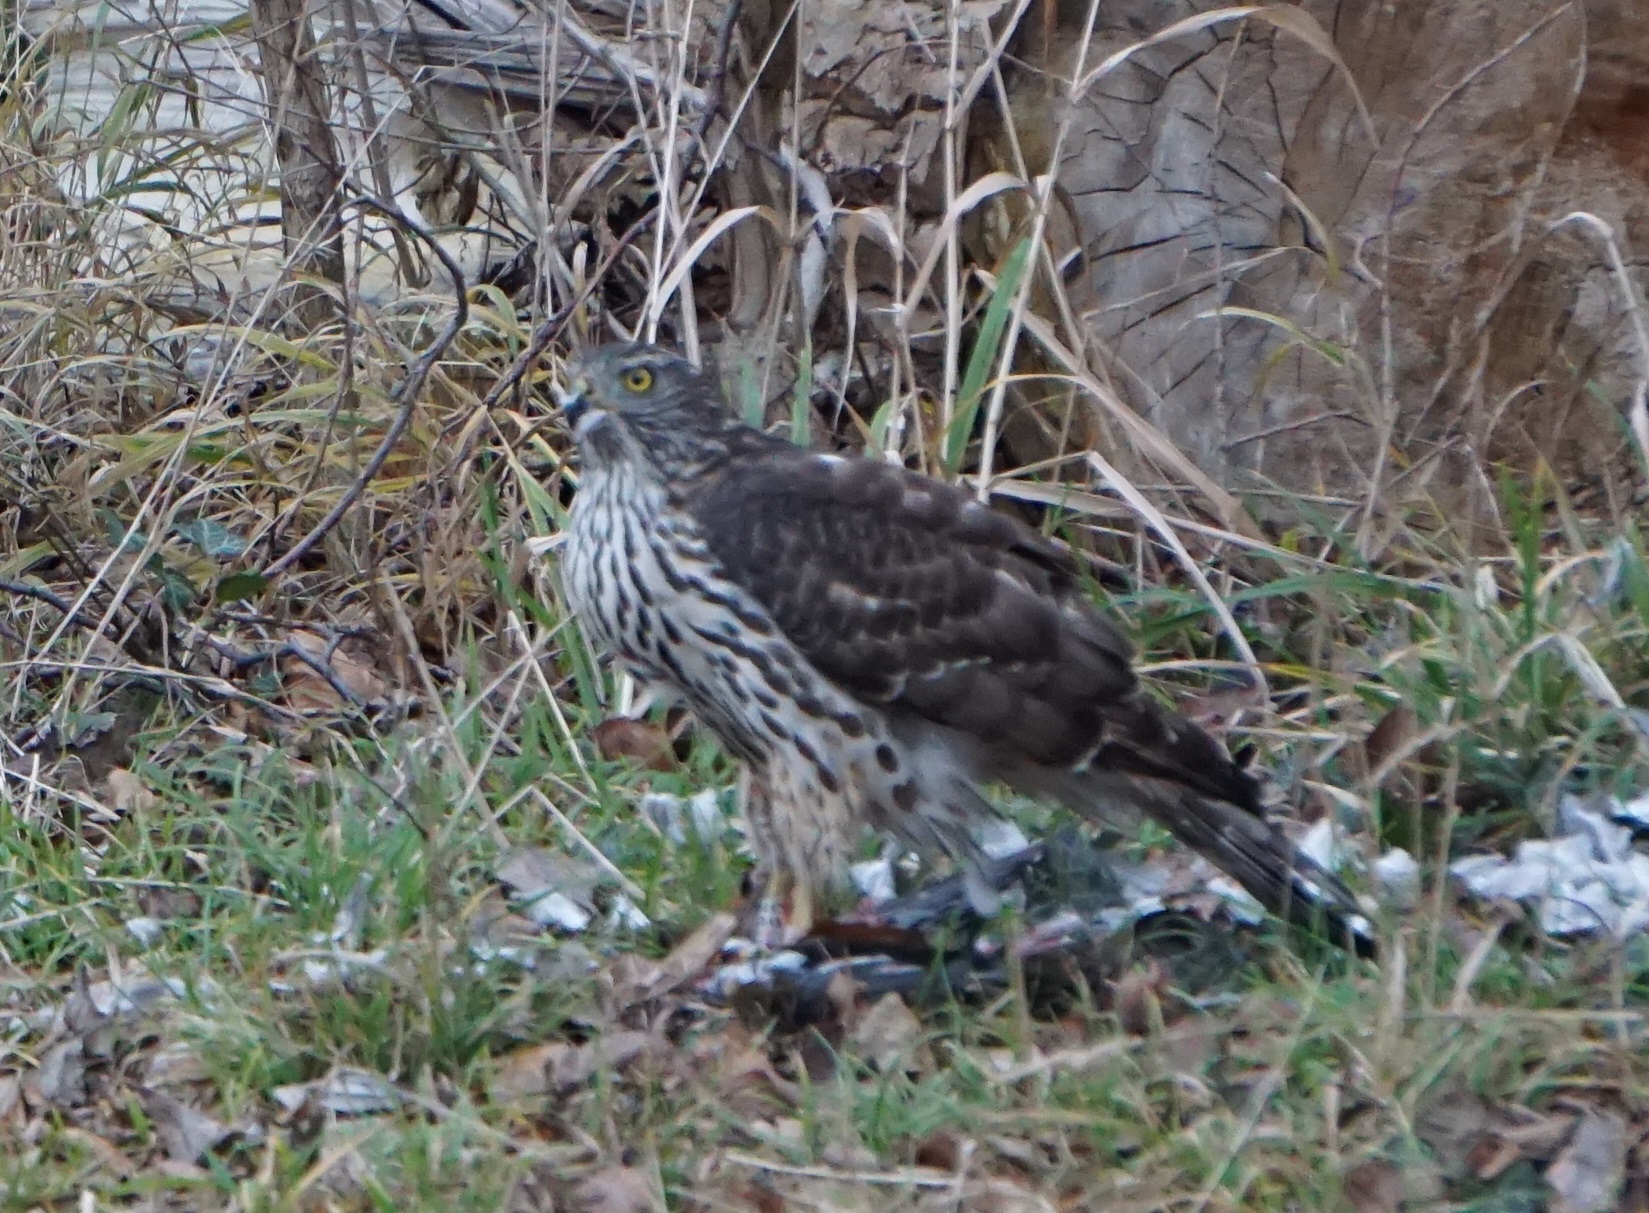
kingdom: Animalia
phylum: Chordata
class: Aves
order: Accipitriformes
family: Accipitridae
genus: Accipiter
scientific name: Accipiter gentilis
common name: Northern goshawk
